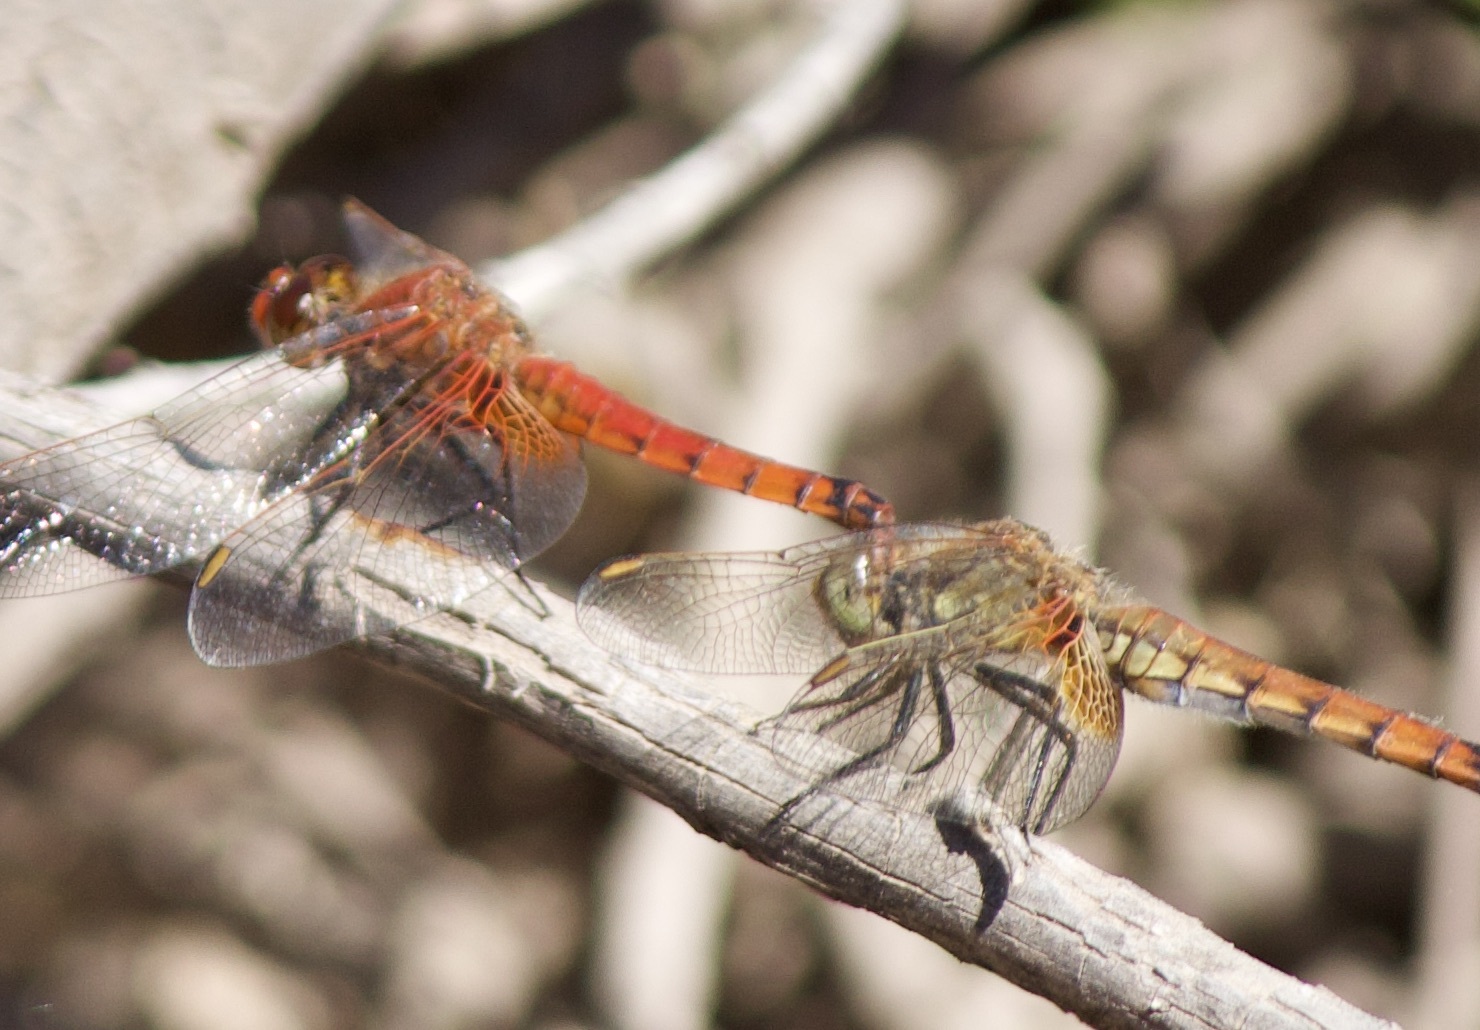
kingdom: Animalia
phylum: Arthropoda
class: Insecta
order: Odonata
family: Libellulidae
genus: Erythrodiplax
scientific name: Erythrodiplax corallina
